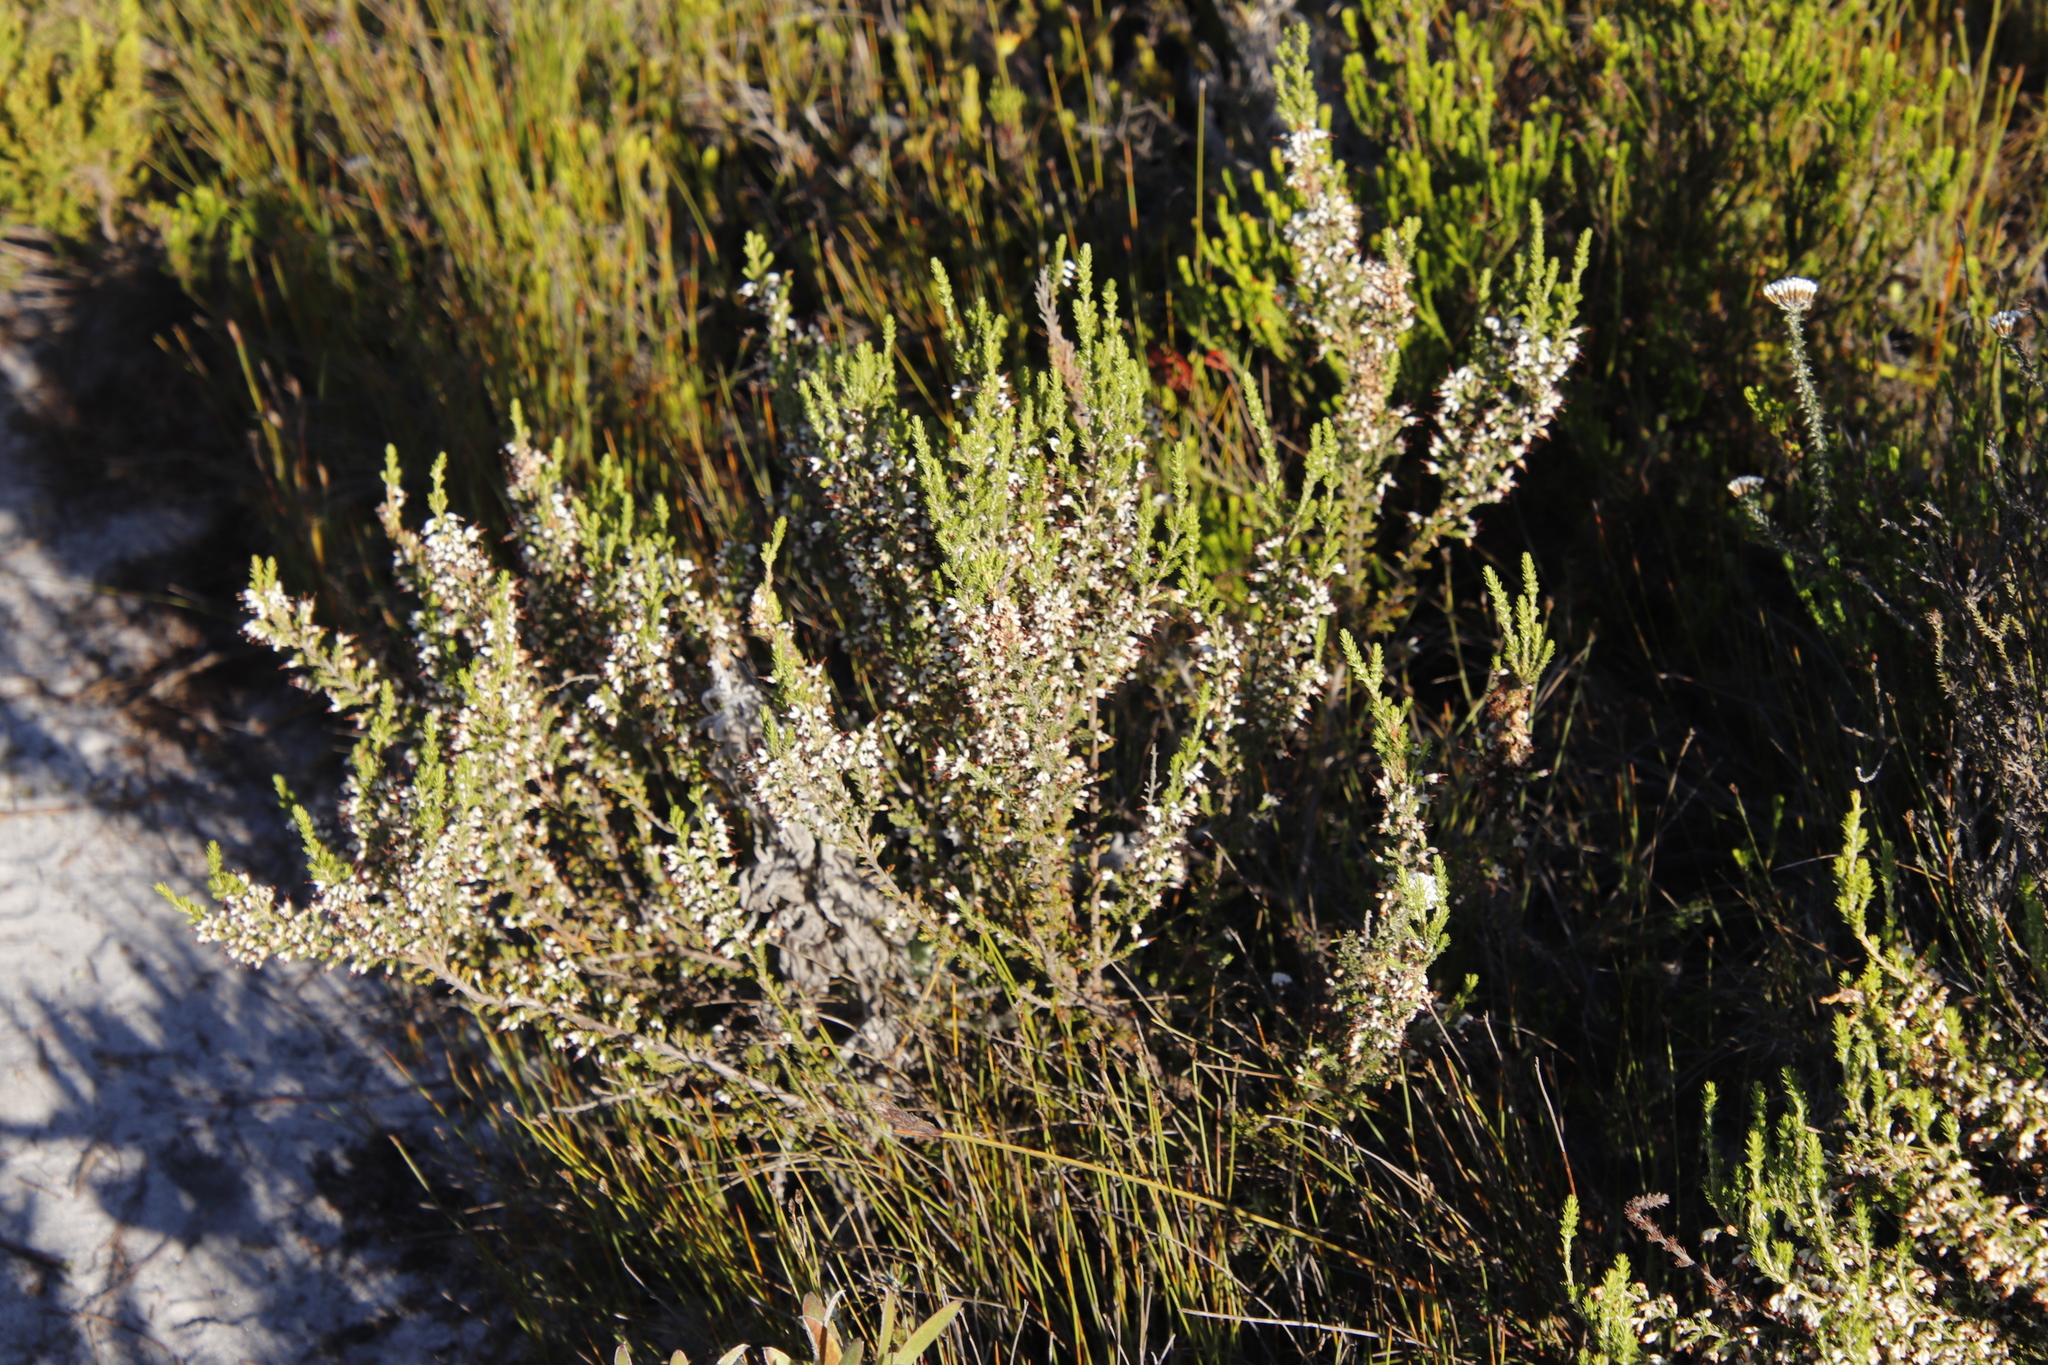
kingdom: Plantae
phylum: Tracheophyta
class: Magnoliopsida
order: Ericales
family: Ericaceae
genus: Erica
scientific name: Erica imbricata
